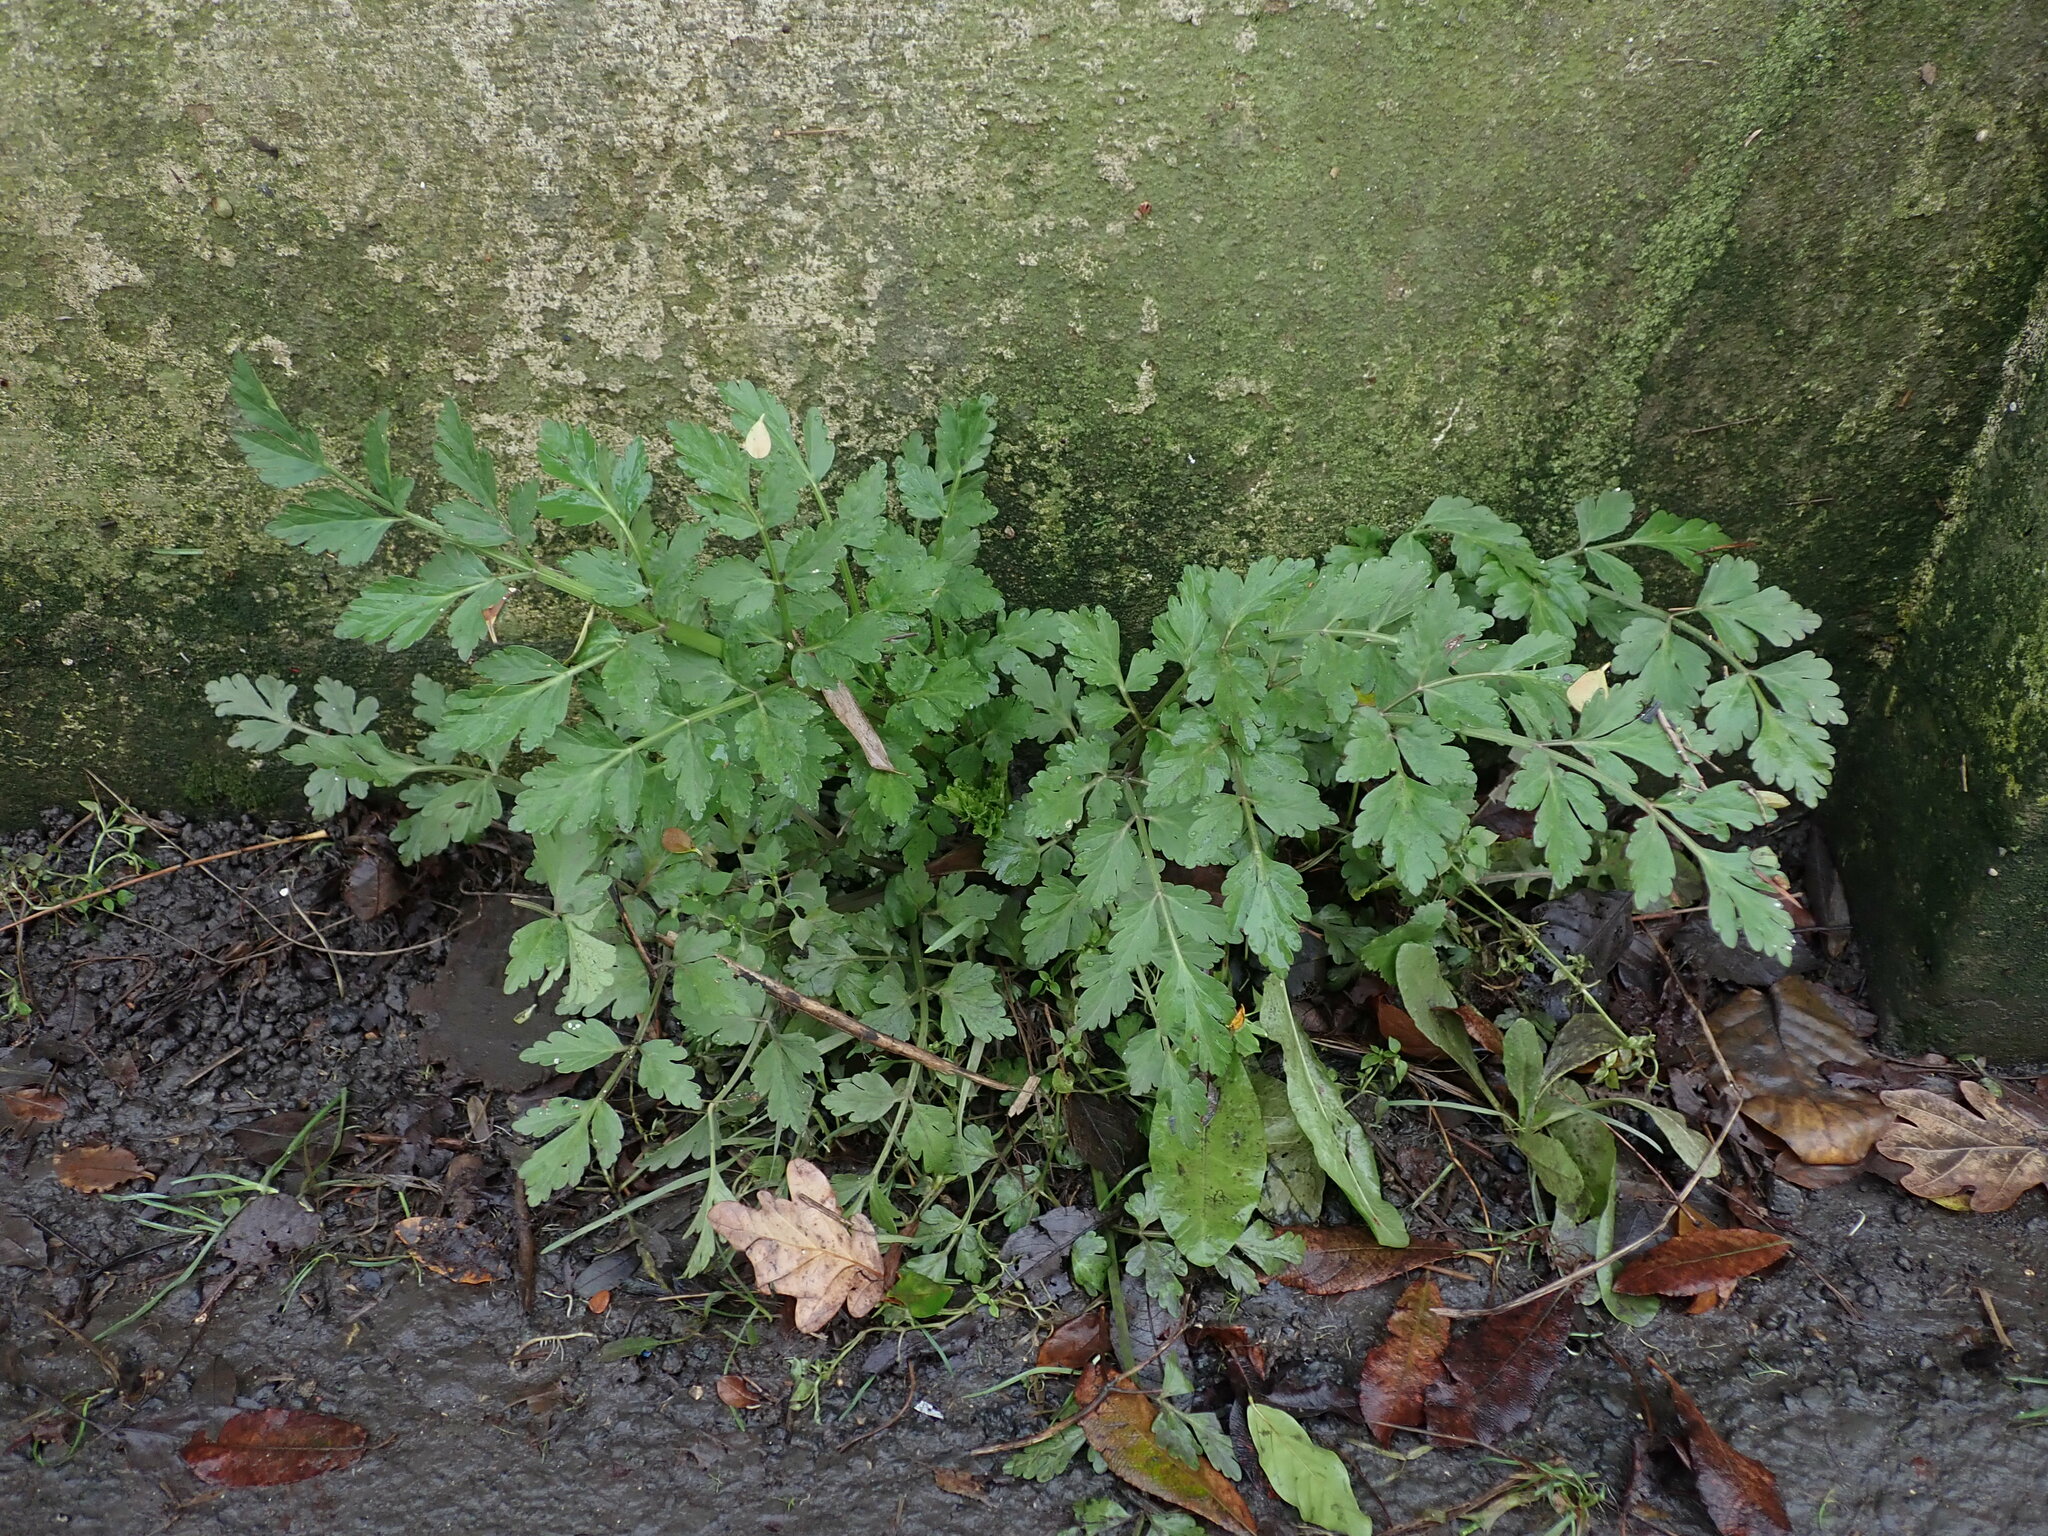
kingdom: Plantae
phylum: Tracheophyta
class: Magnoliopsida
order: Apiales
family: Apiaceae
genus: Oenanthe
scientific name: Oenanthe crocata
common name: Hemlock water-dropwort
